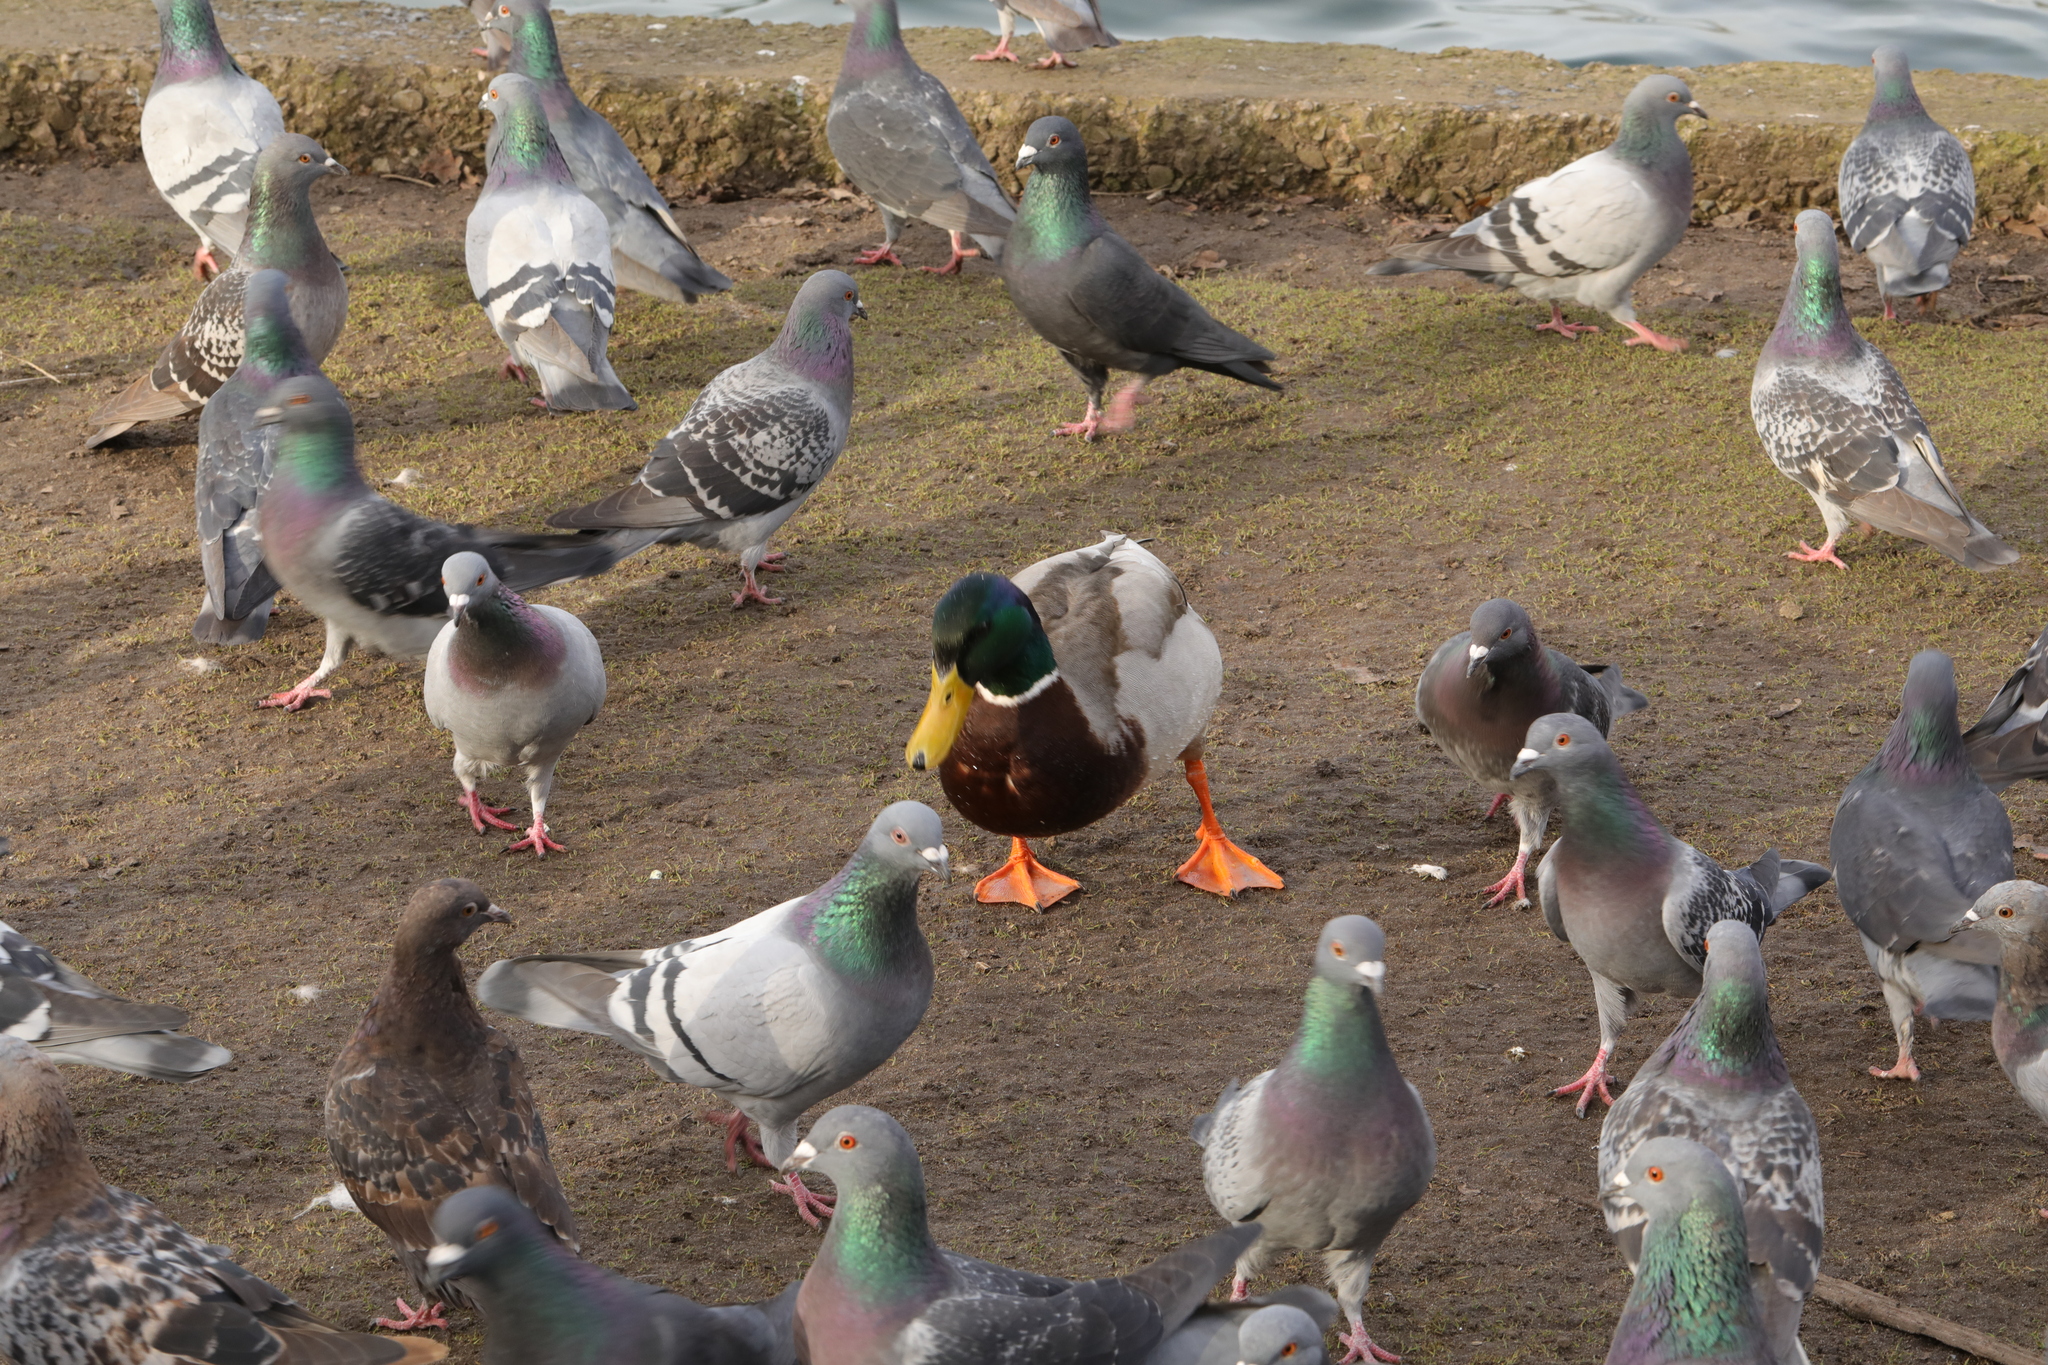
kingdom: Animalia
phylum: Chordata
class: Aves
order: Anseriformes
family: Anatidae
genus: Anas
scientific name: Anas platyrhynchos
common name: Mallard
